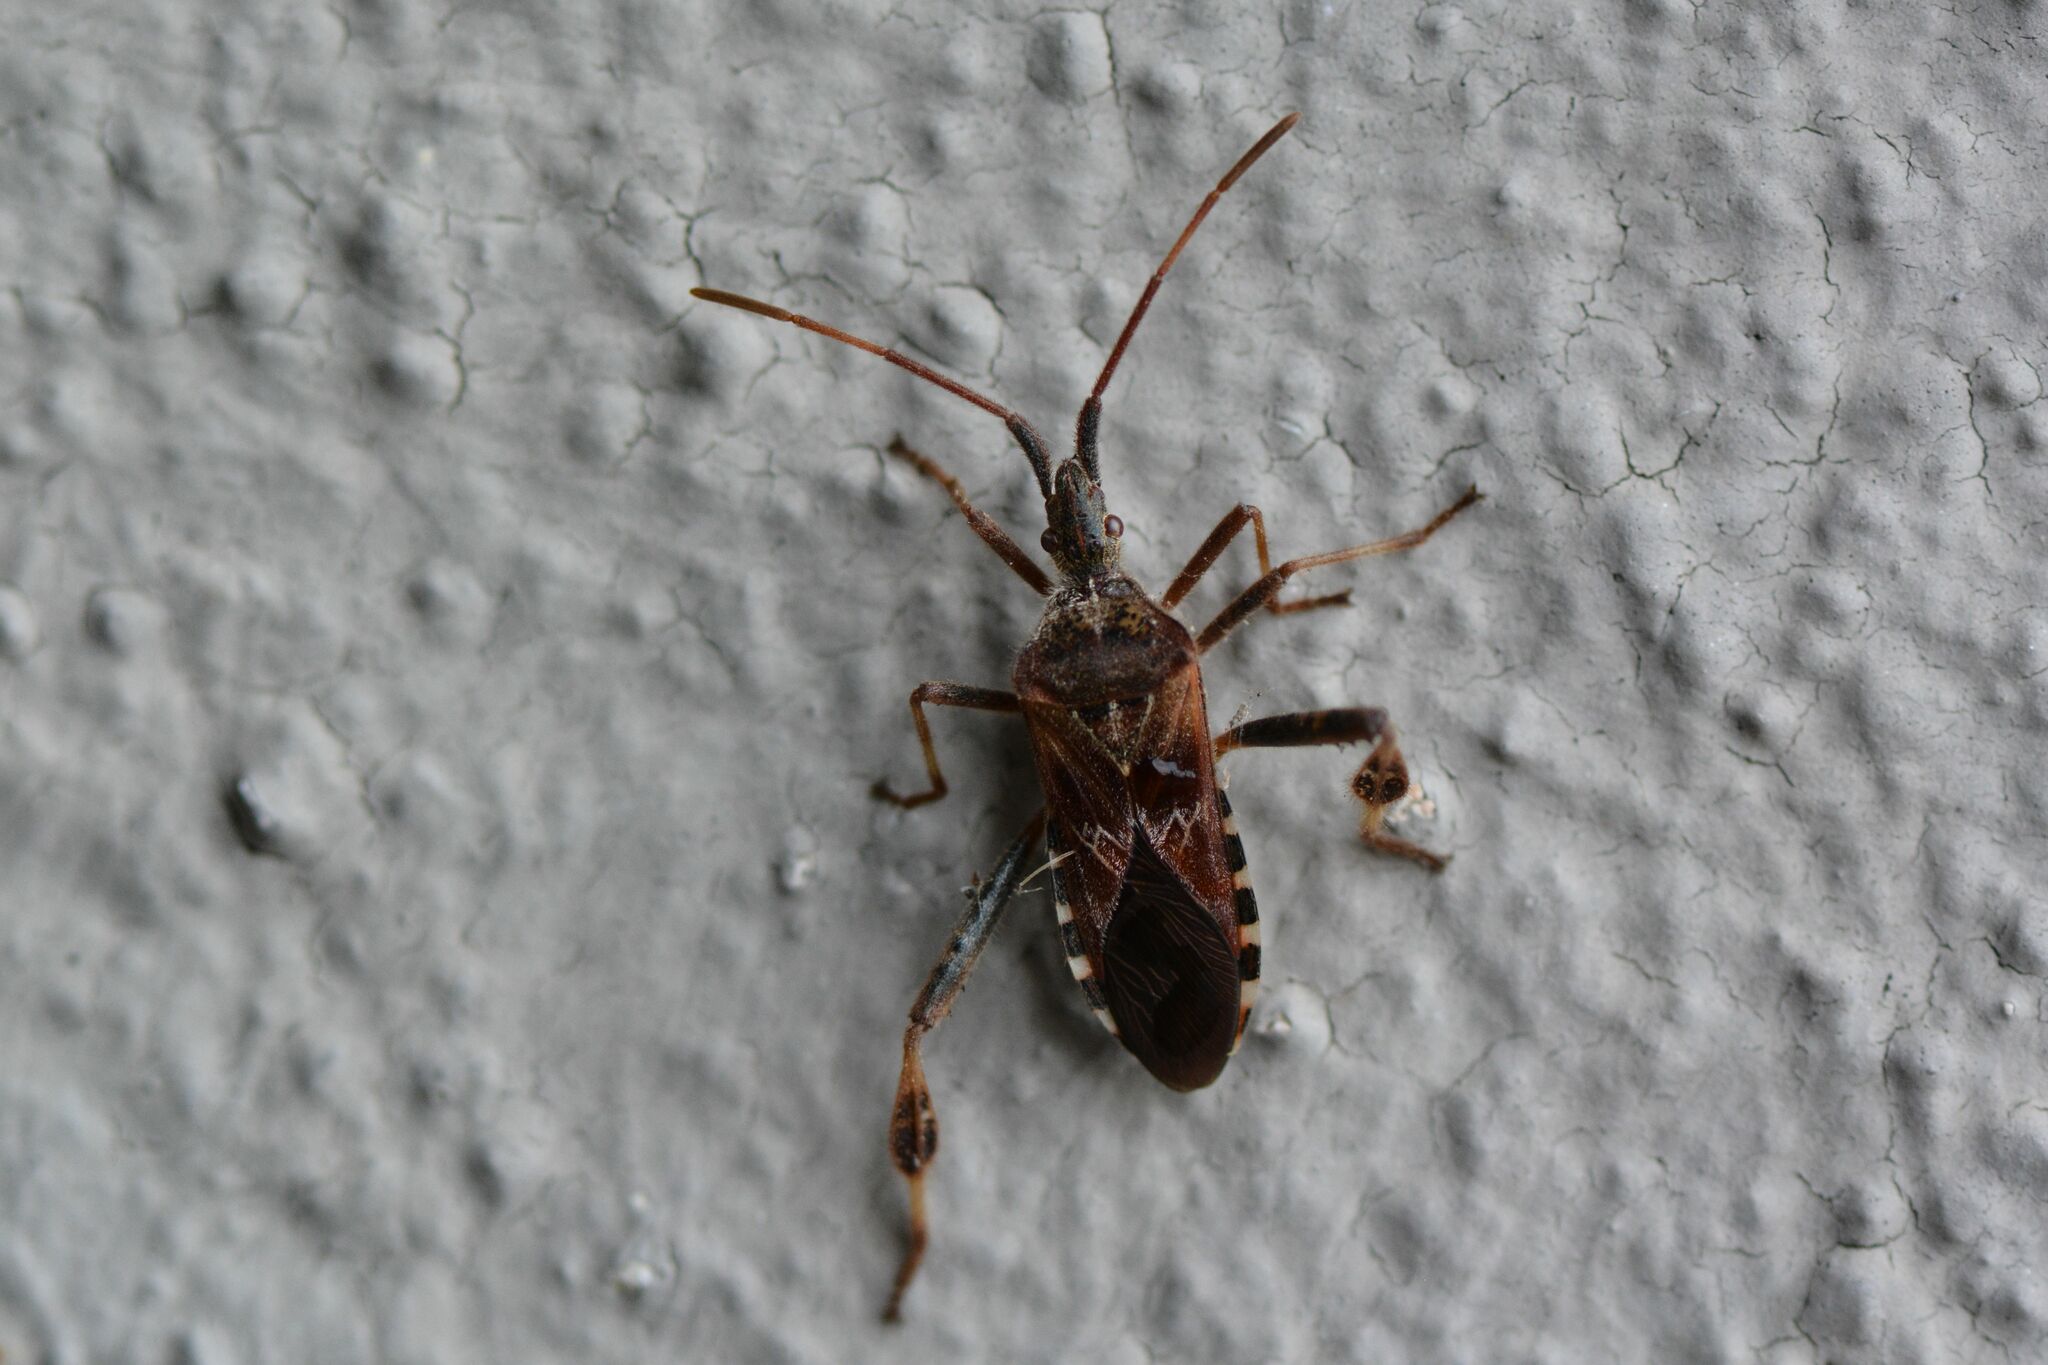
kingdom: Animalia
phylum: Arthropoda
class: Insecta
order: Hemiptera
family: Coreidae
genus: Leptoglossus
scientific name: Leptoglossus occidentalis
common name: Western conifer-seed bug
